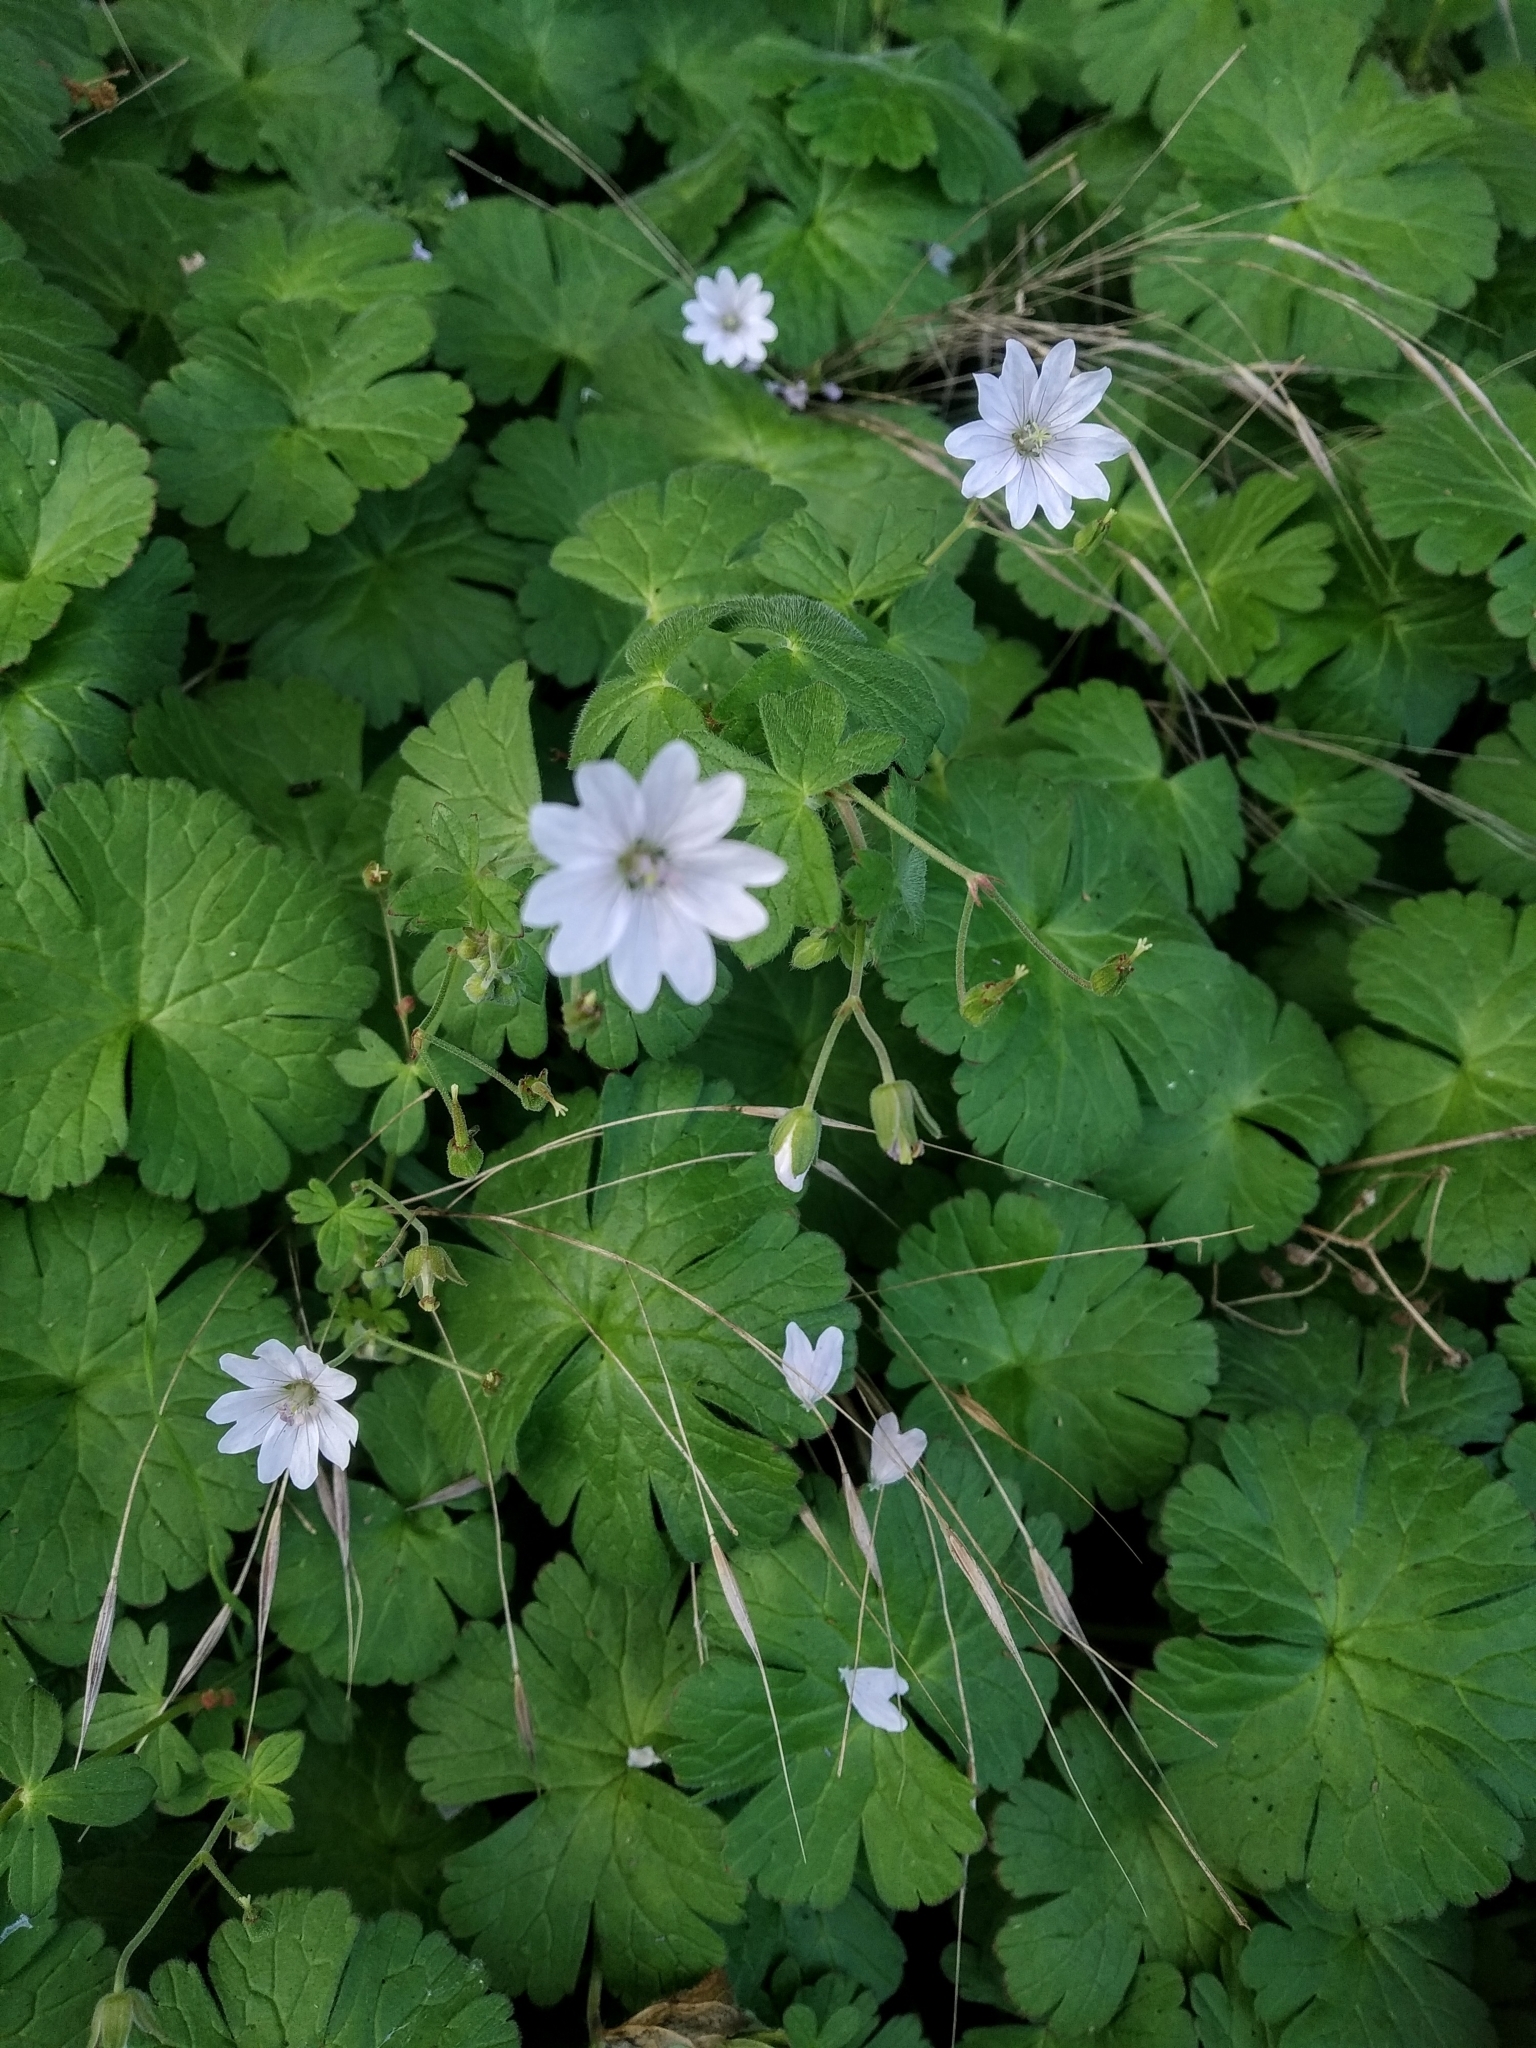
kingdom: Plantae
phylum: Tracheophyta
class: Magnoliopsida
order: Geraniales
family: Geraniaceae
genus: Geranium
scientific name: Geranium pyrenaicum
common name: Hedgerow crane's-bill
